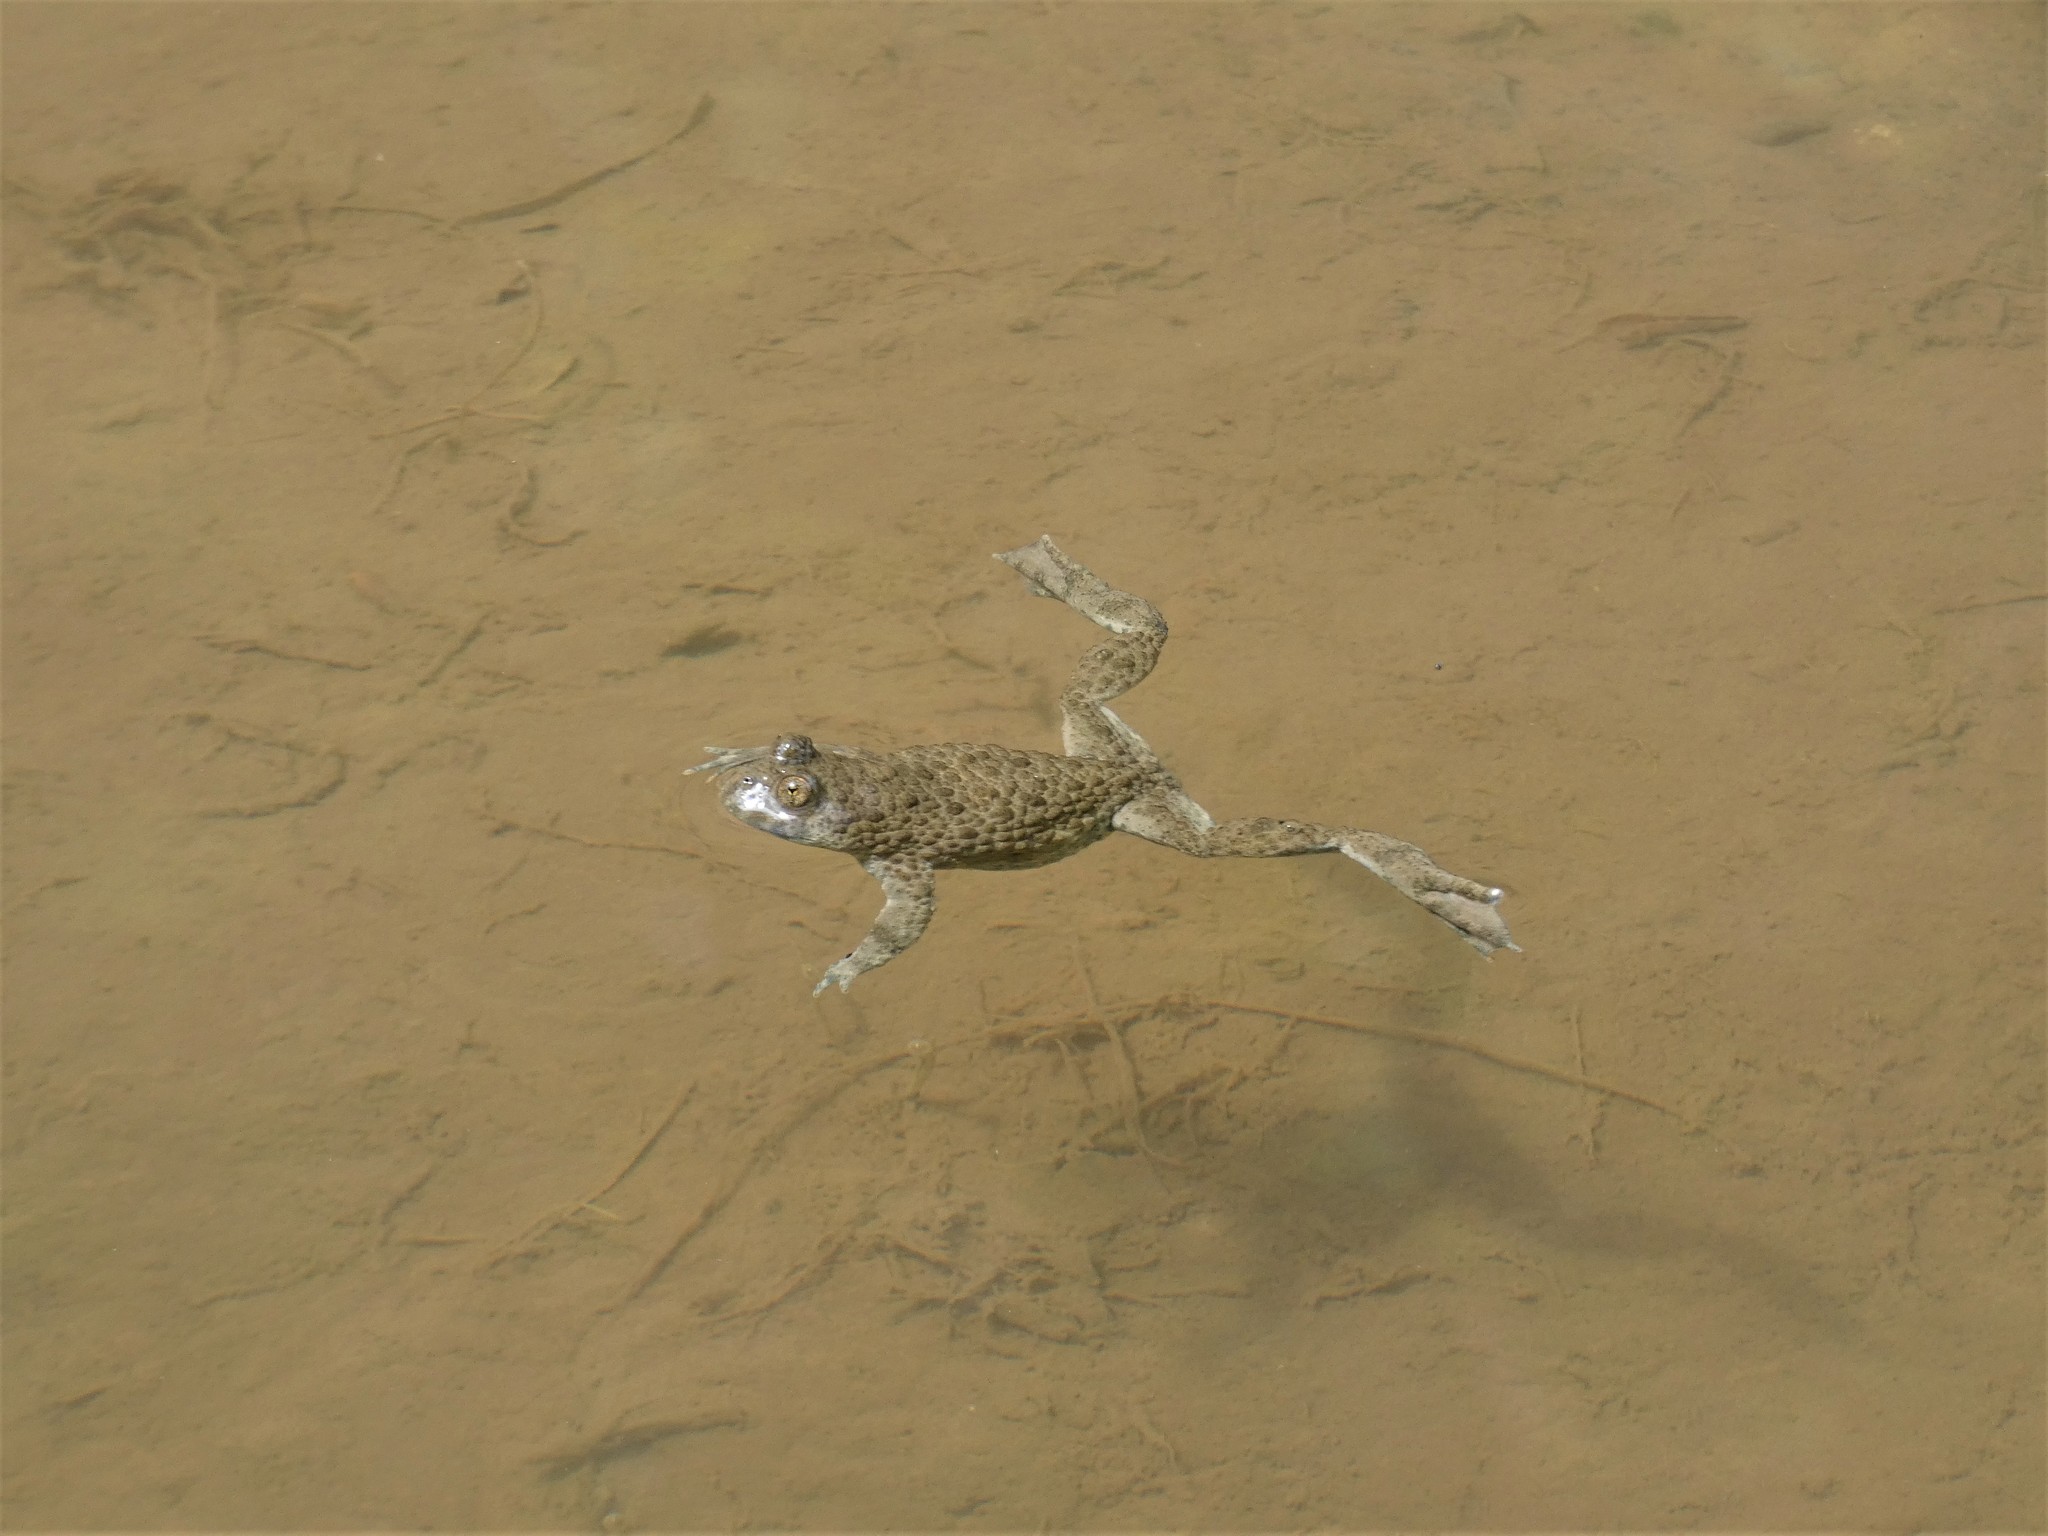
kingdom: Animalia
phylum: Chordata
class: Amphibia
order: Anura
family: Bombinatoridae
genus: Bombina
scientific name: Bombina variegata
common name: Yellow-bellied toad
